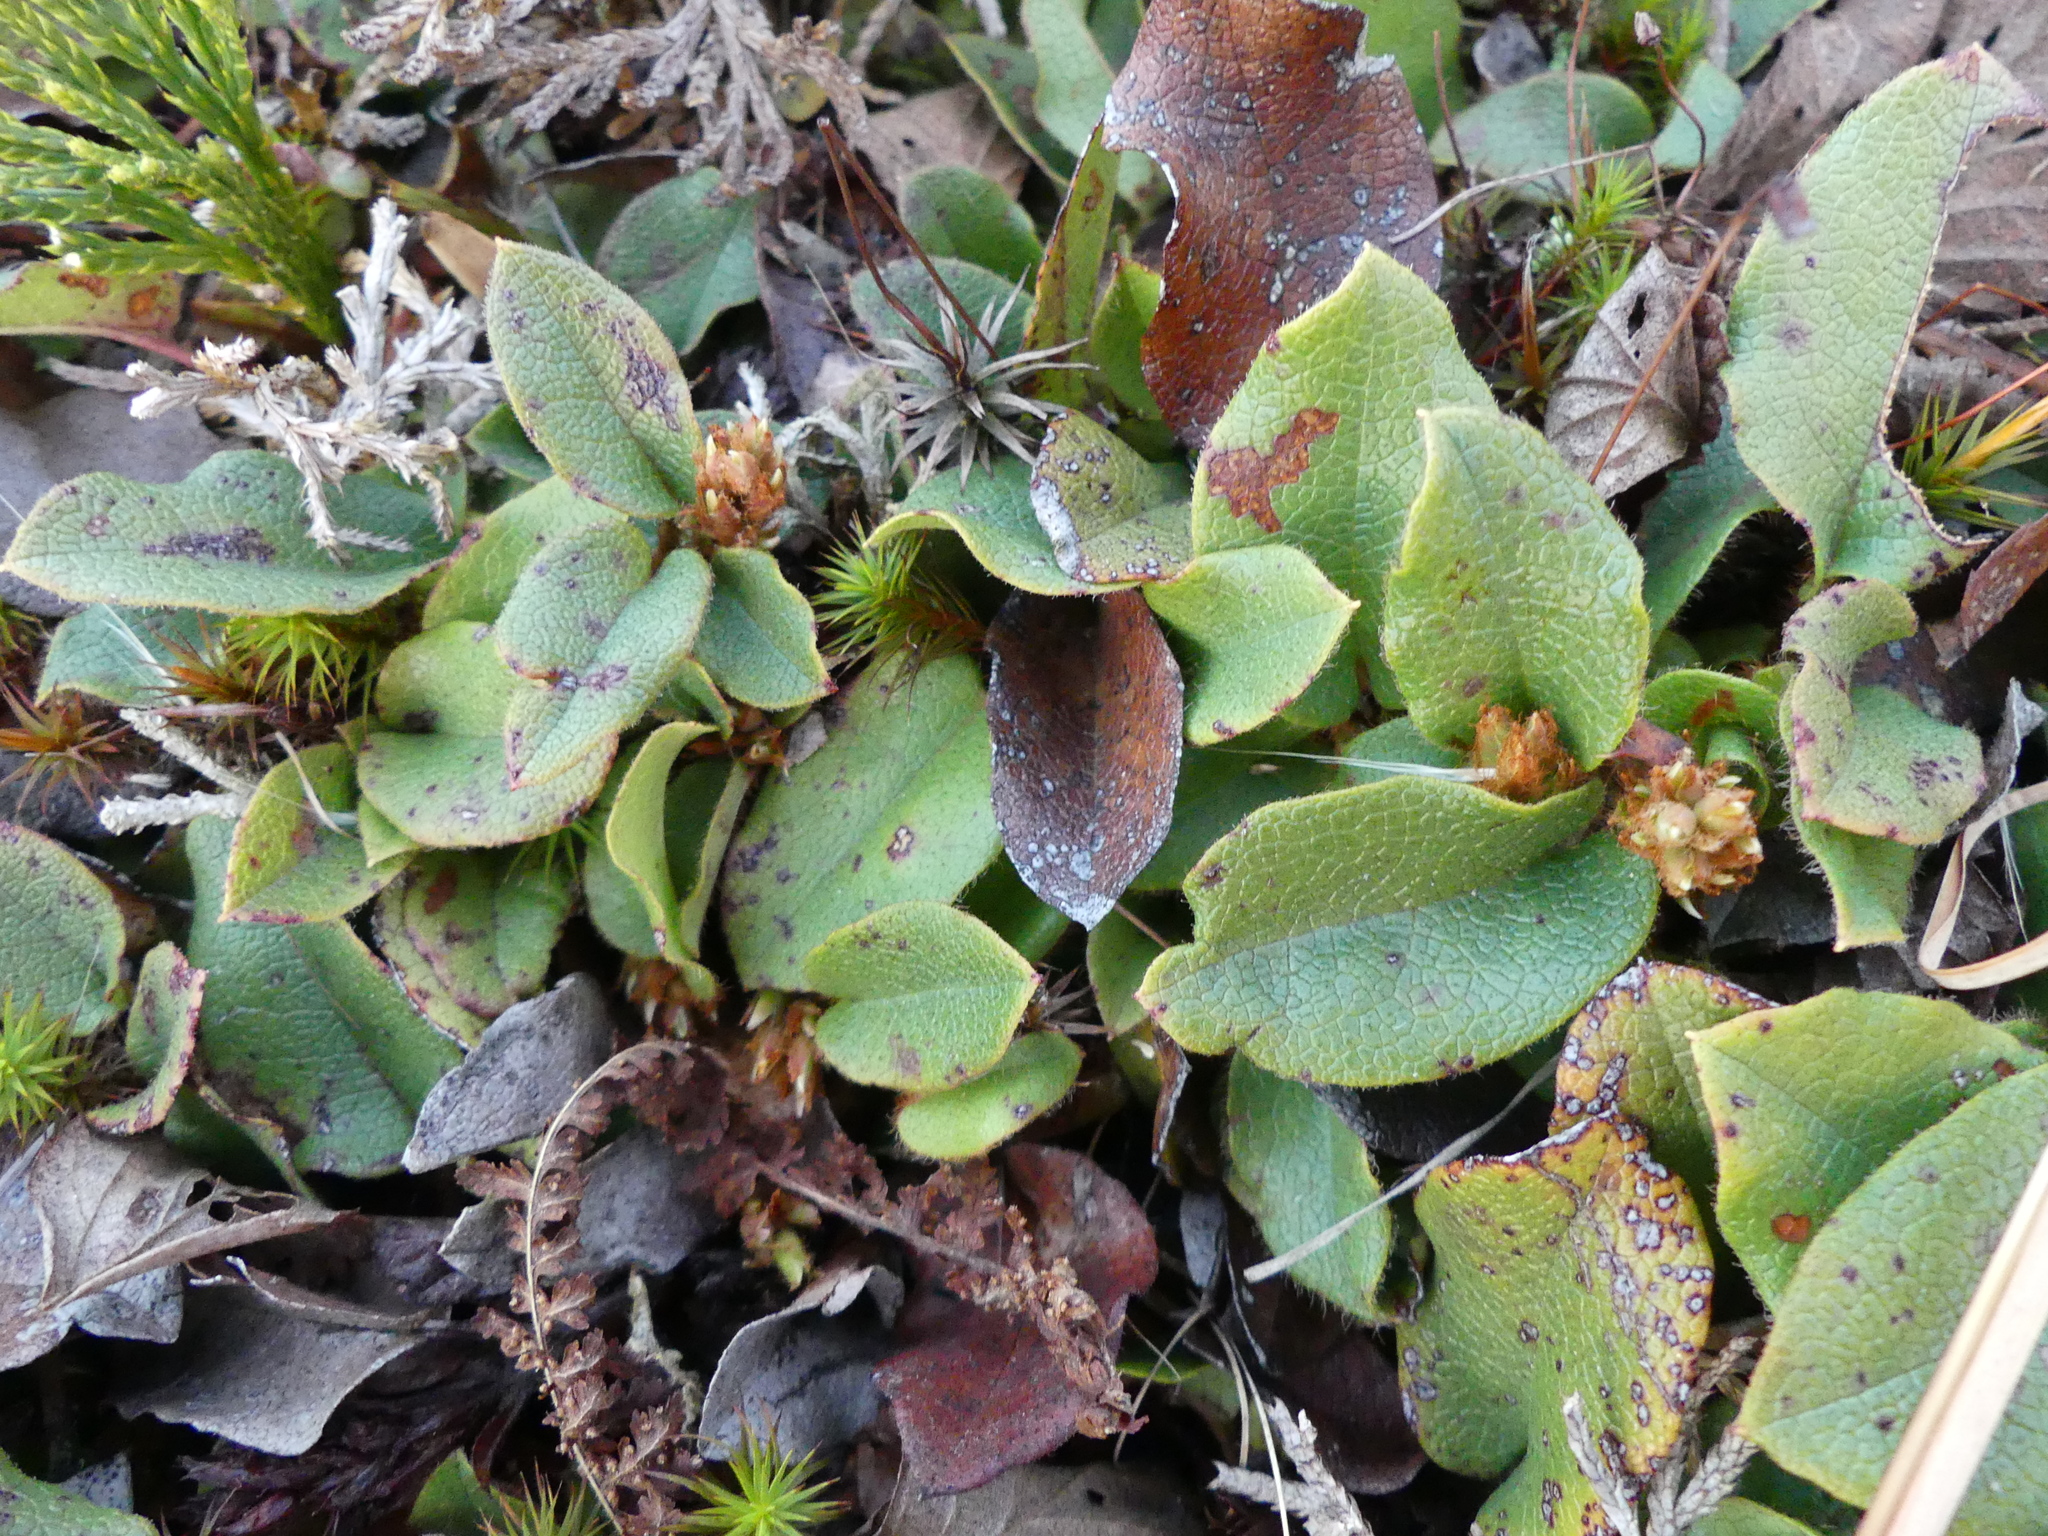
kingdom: Plantae
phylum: Tracheophyta
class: Magnoliopsida
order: Ericales
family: Ericaceae
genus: Epigaea
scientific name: Epigaea repens
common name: Gravelroot
